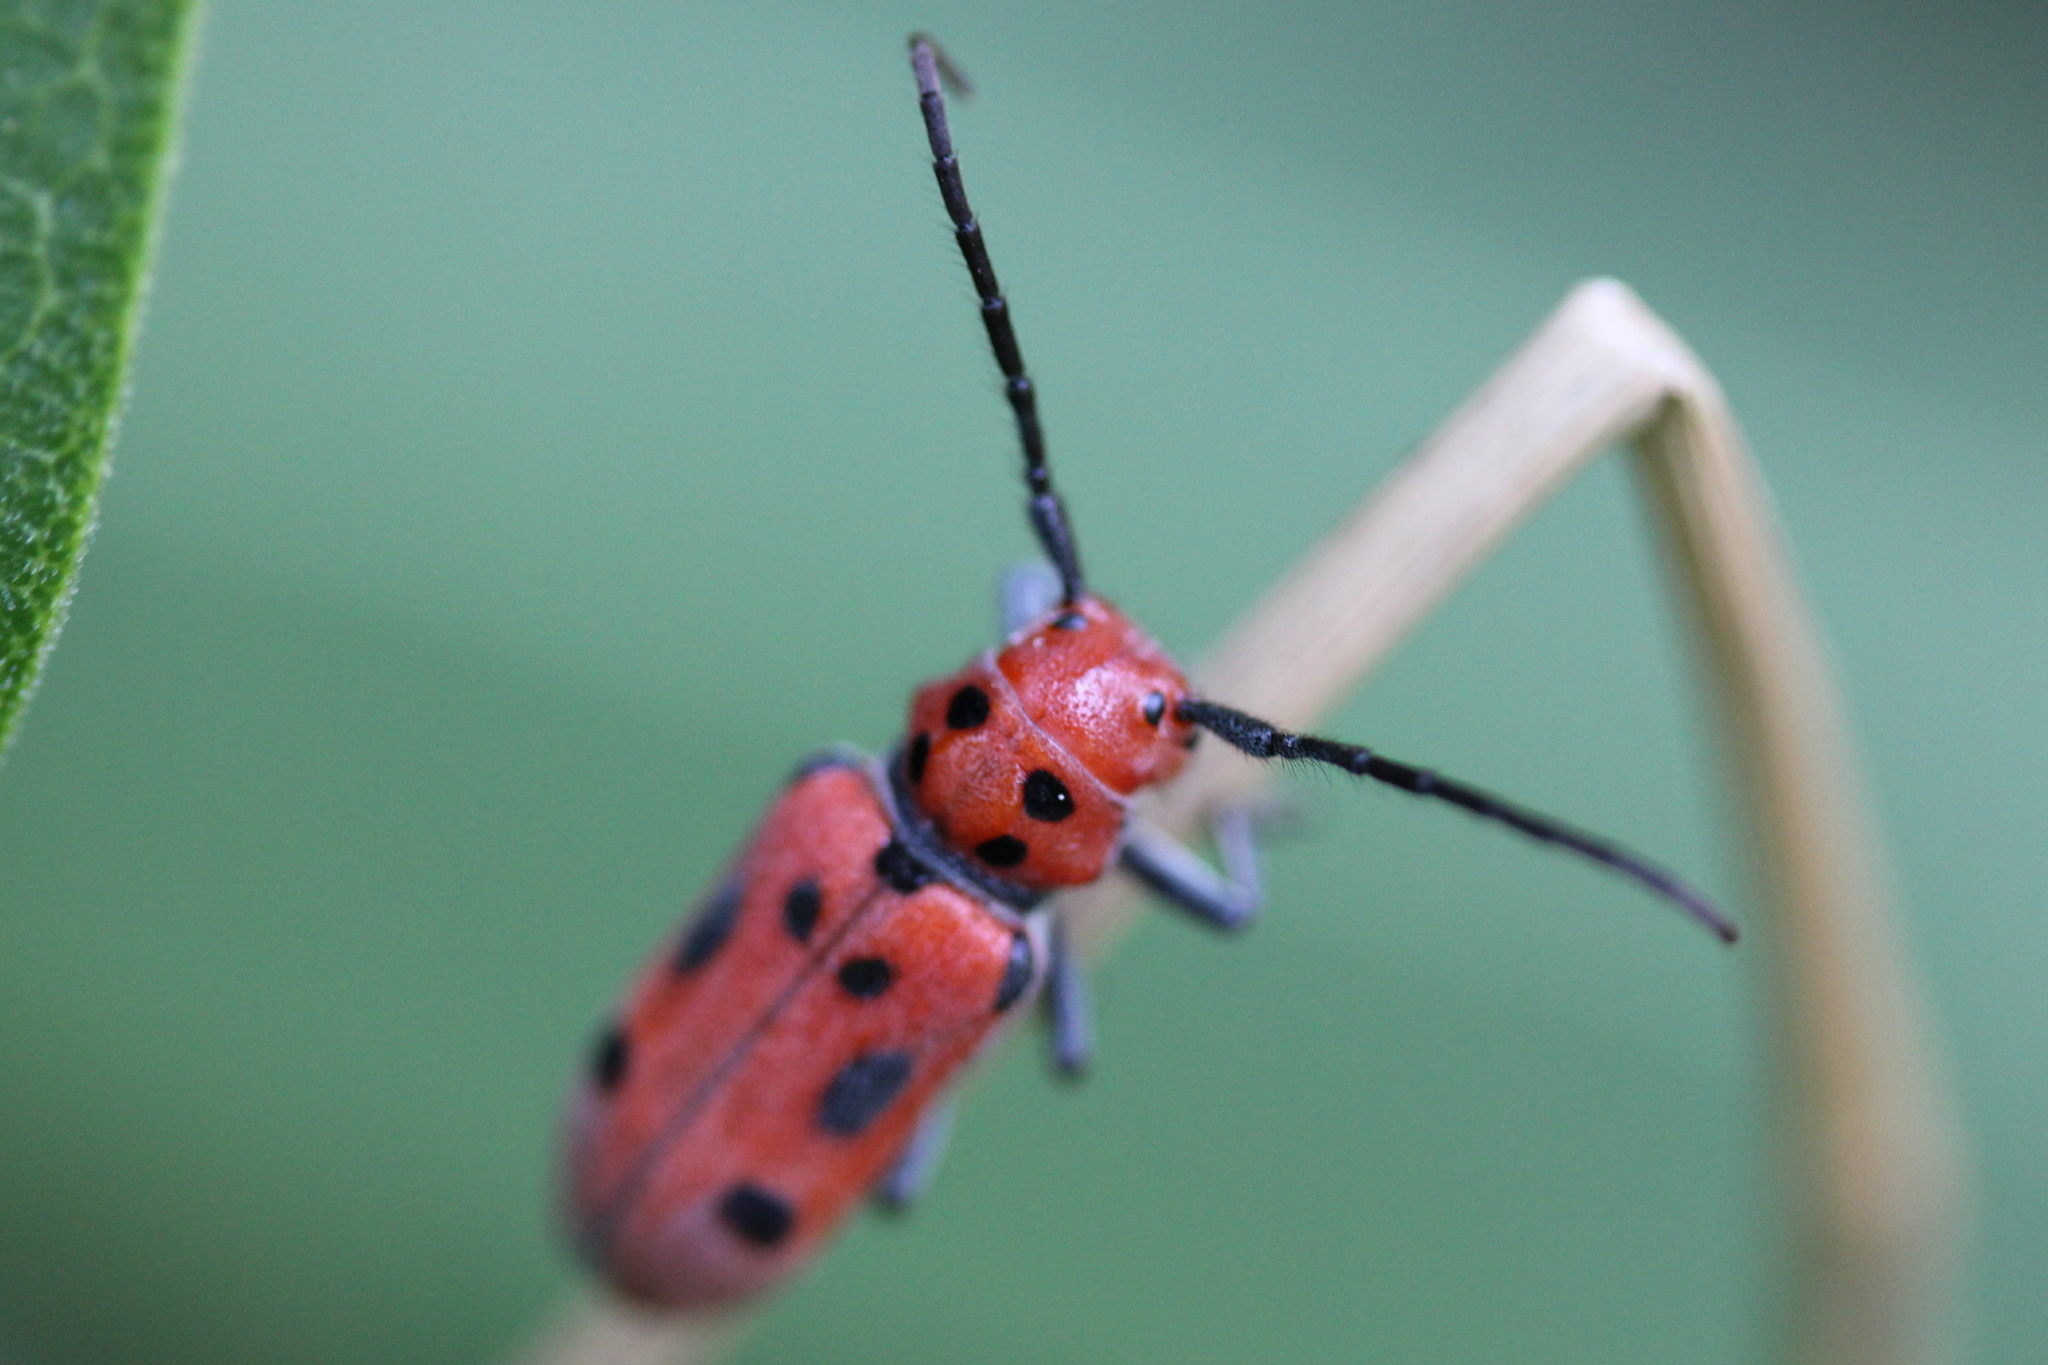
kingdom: Animalia
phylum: Arthropoda
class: Insecta
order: Coleoptera
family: Cerambycidae
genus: Tetraopes
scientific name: Tetraopes tetrophthalmus
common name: Red milkweed beetle
